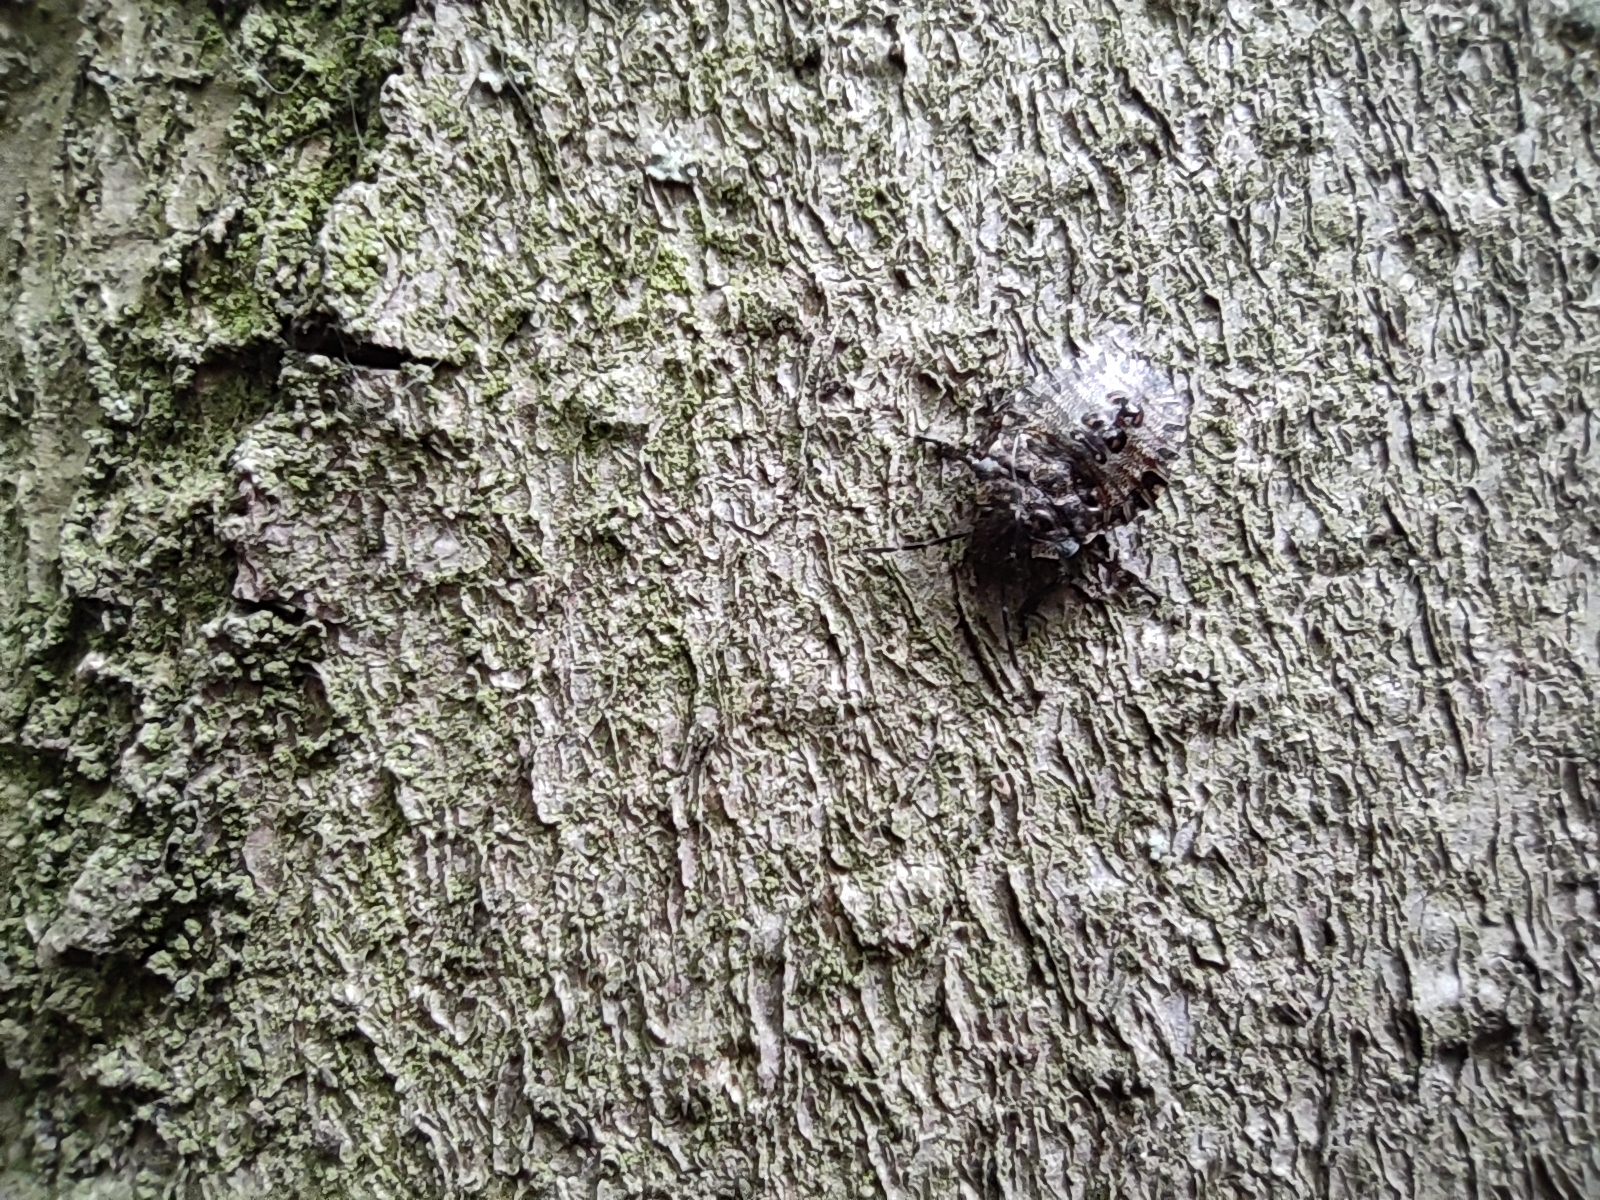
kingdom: Animalia
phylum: Arthropoda
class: Insecta
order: Hemiptera
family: Pentatomidae
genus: Pentatoma
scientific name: Pentatoma rufipes
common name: Forest bug
